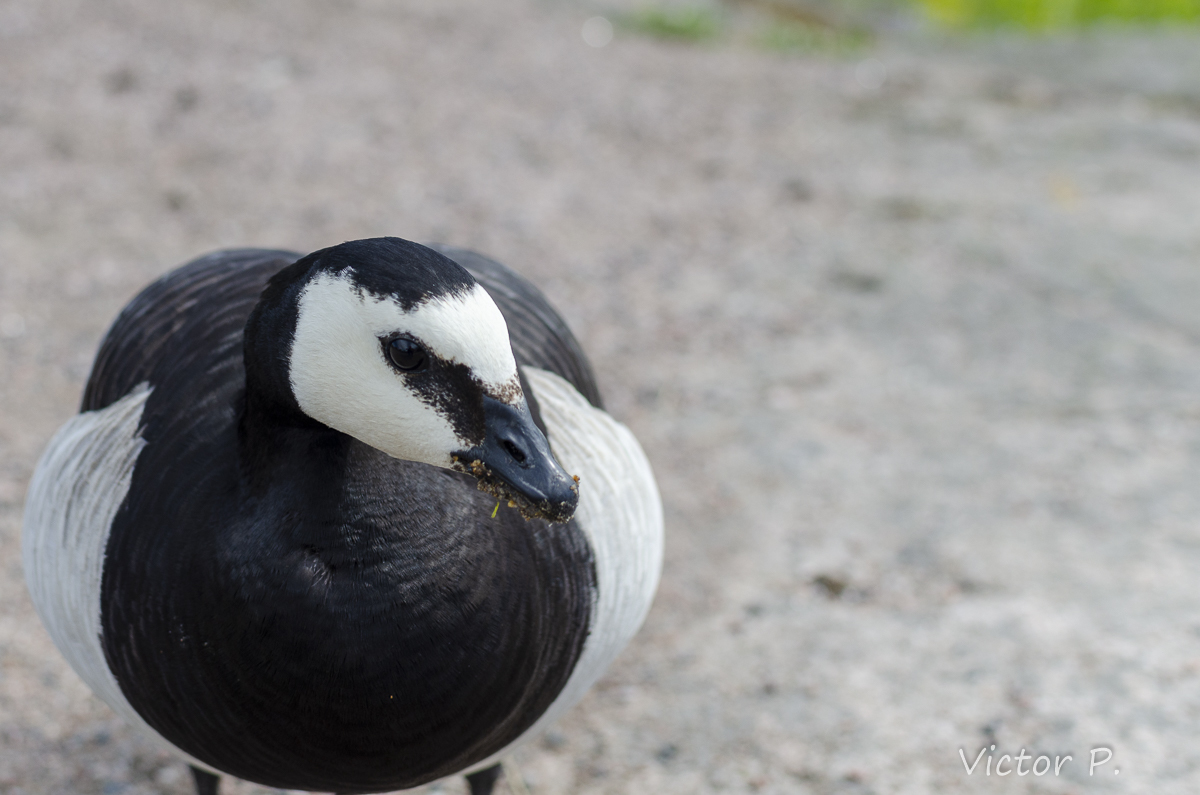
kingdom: Animalia
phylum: Chordata
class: Aves
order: Anseriformes
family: Anatidae
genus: Branta
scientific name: Branta leucopsis
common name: Barnacle goose
